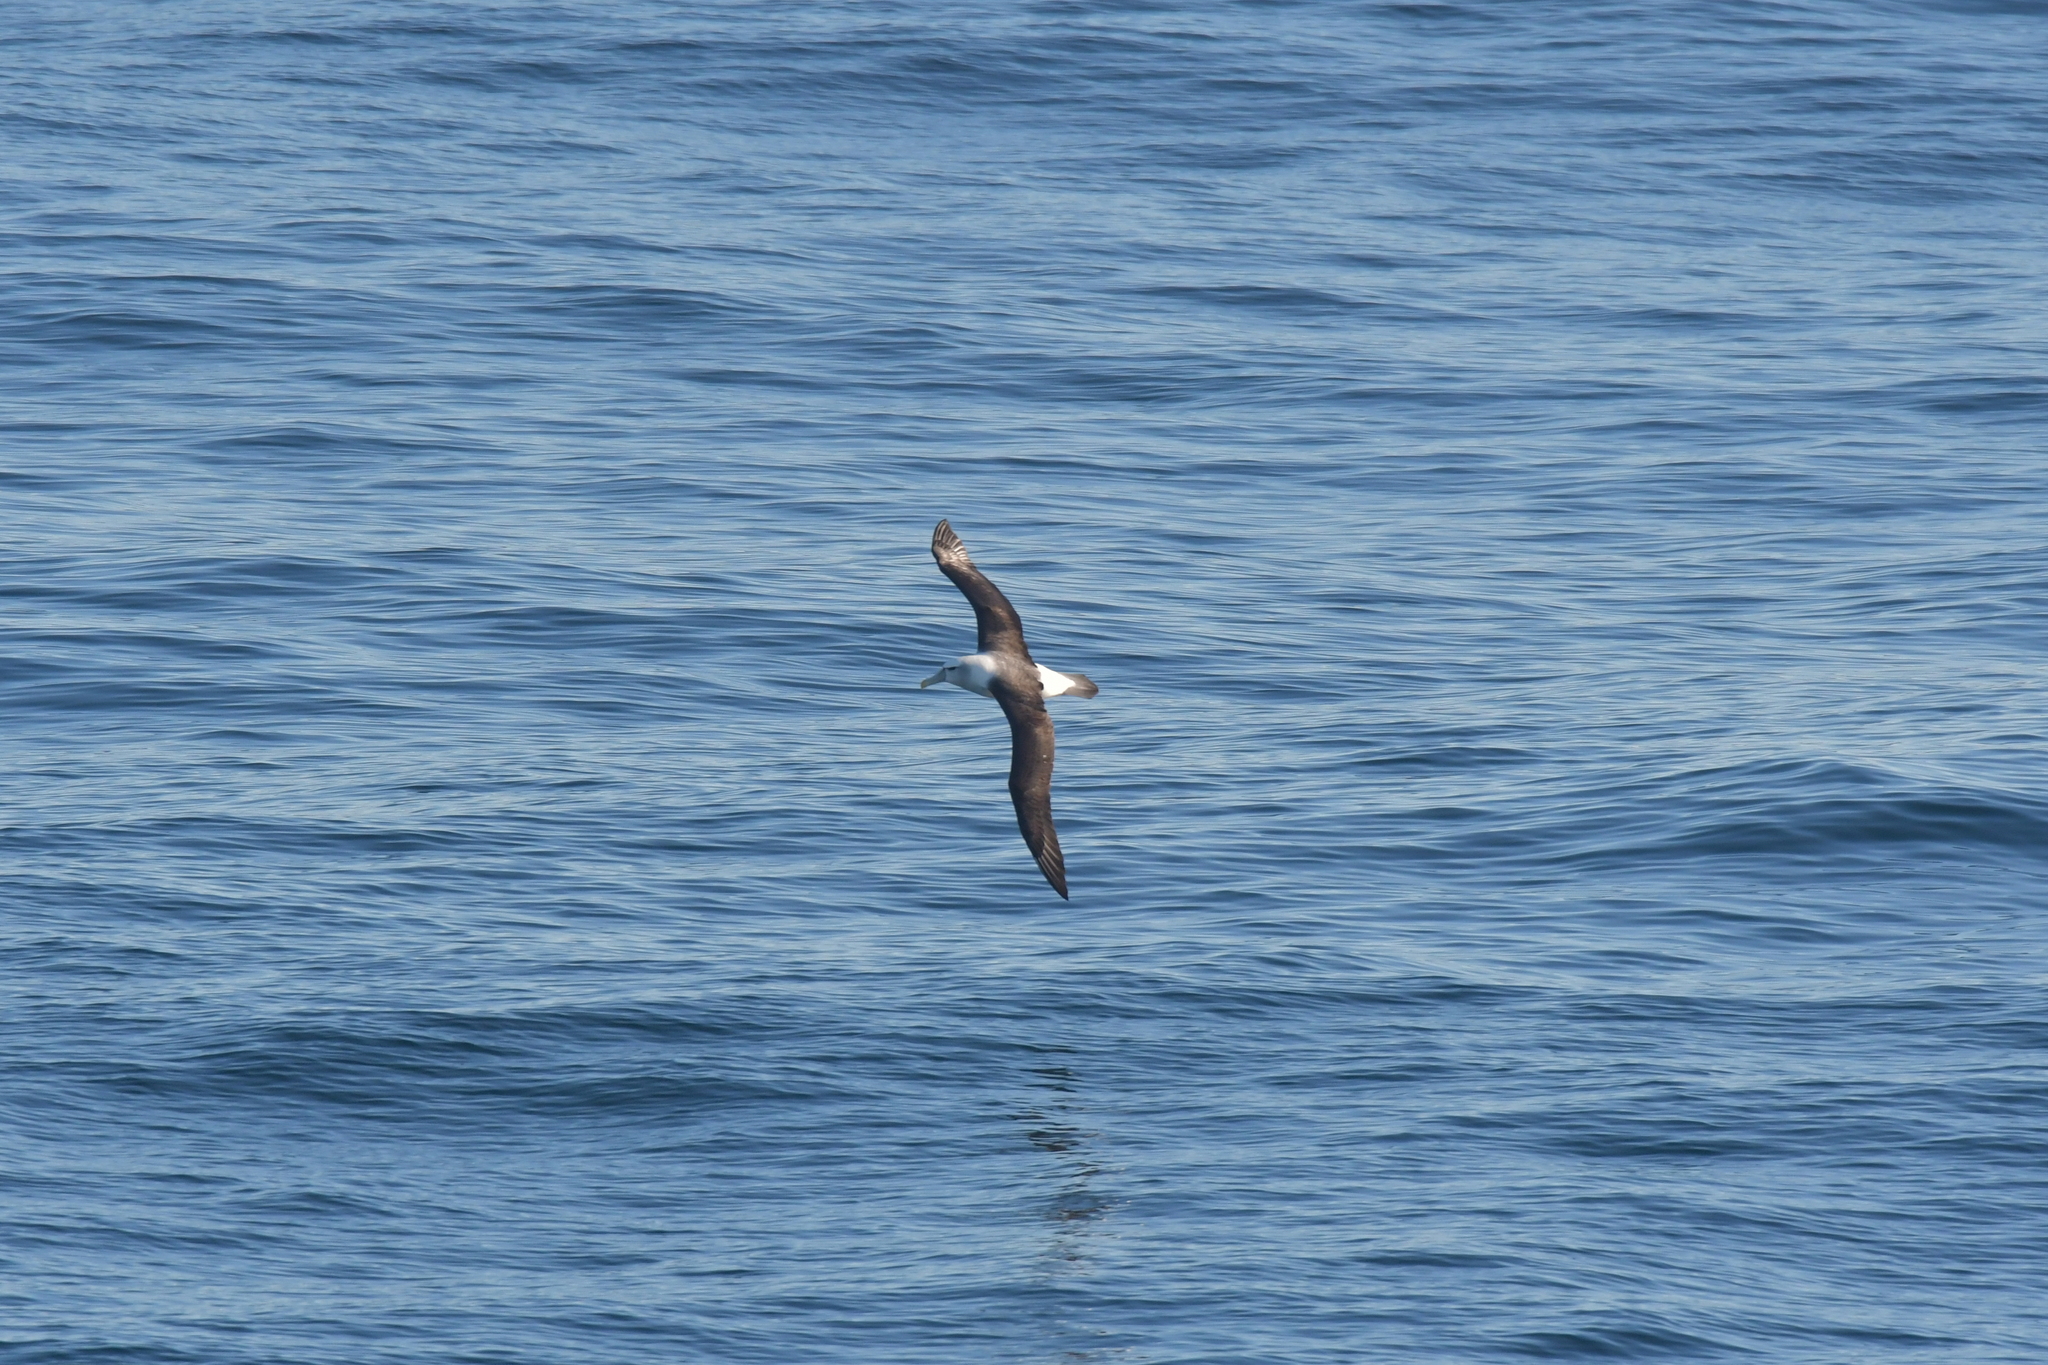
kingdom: Animalia
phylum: Chordata
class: Aves
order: Procellariiformes
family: Diomedeidae
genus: Thalassarche
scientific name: Thalassarche cauta
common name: Shy albatross
